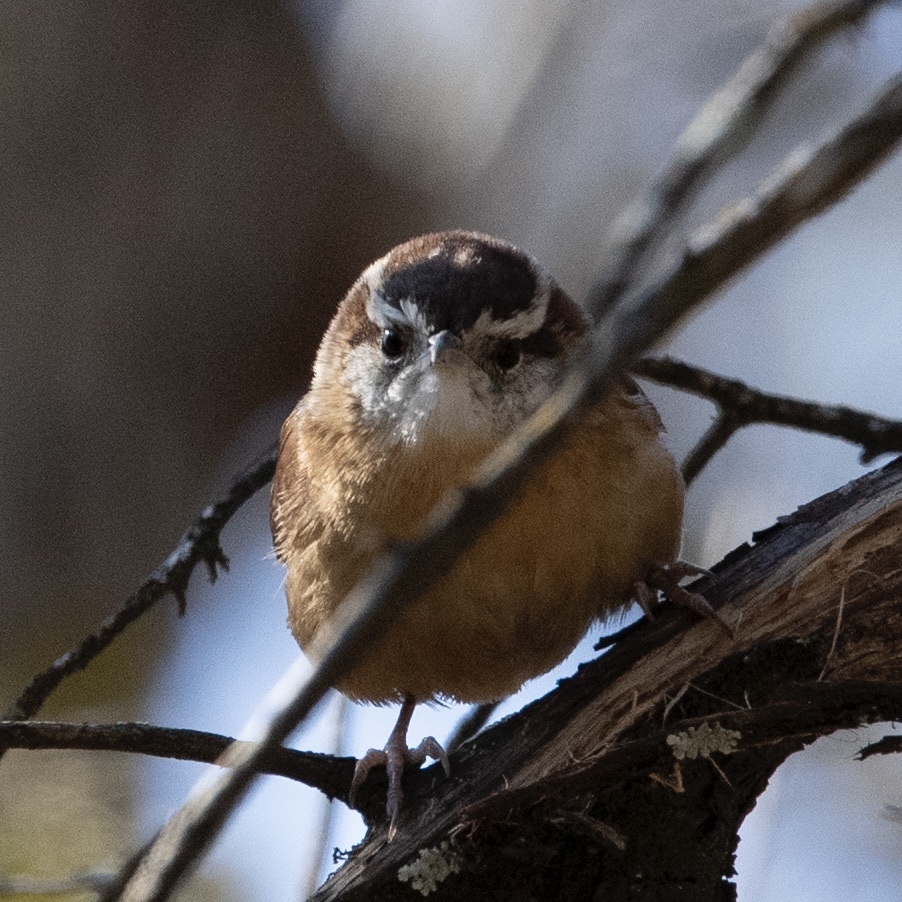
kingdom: Animalia
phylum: Chordata
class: Aves
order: Passeriformes
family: Troglodytidae
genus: Thryothorus
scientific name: Thryothorus ludovicianus
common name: Carolina wren
